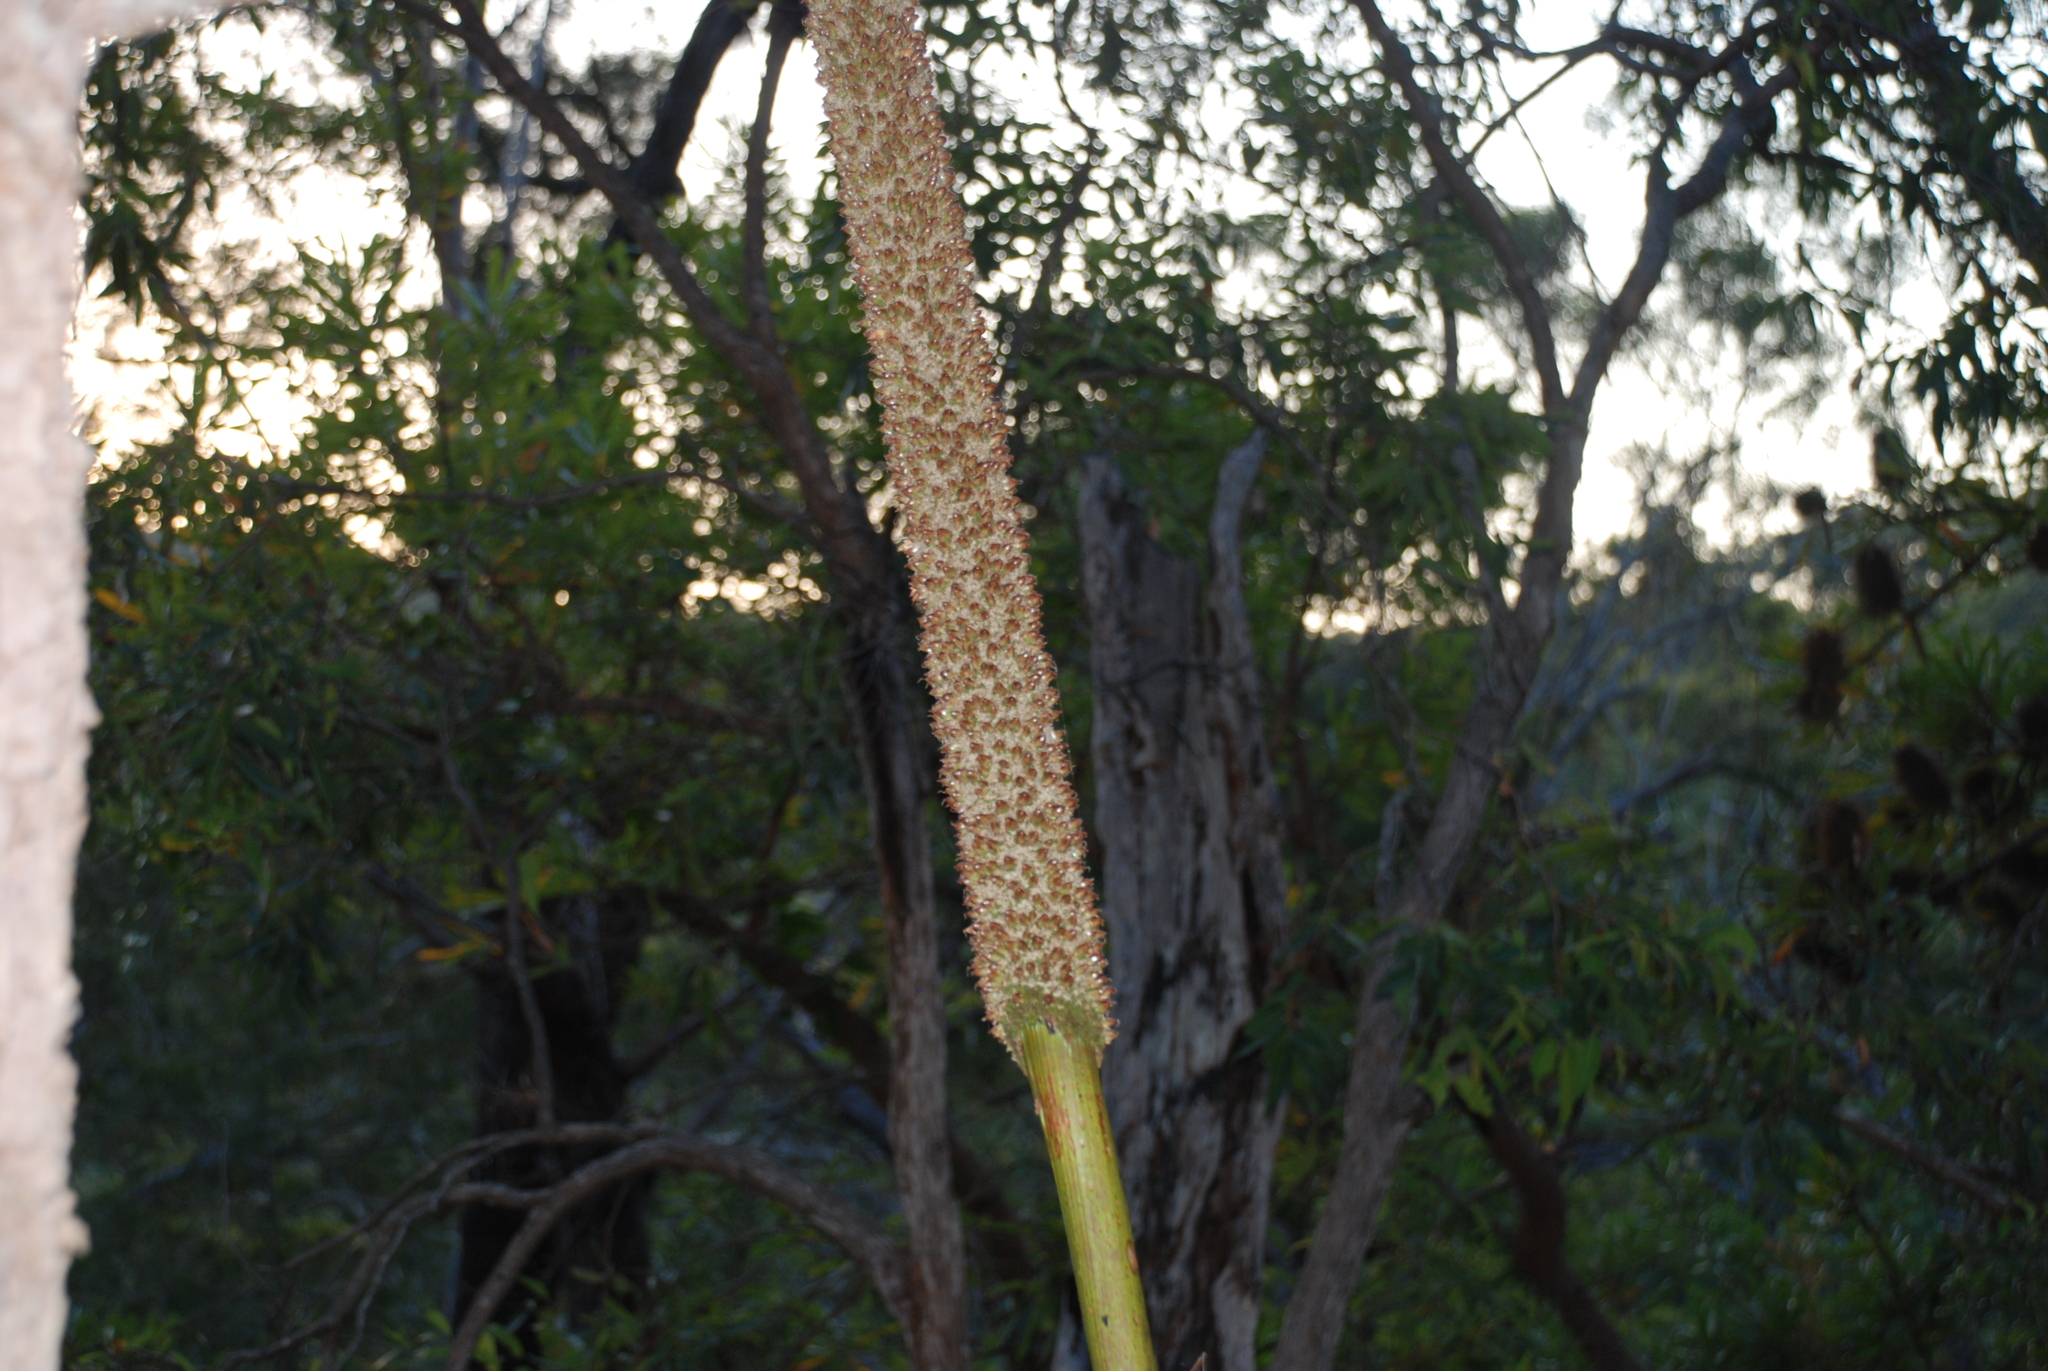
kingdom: Plantae
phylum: Tracheophyta
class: Liliopsida
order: Asparagales
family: Asphodelaceae
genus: Xanthorrhoea
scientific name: Xanthorrhoea johnsonii
